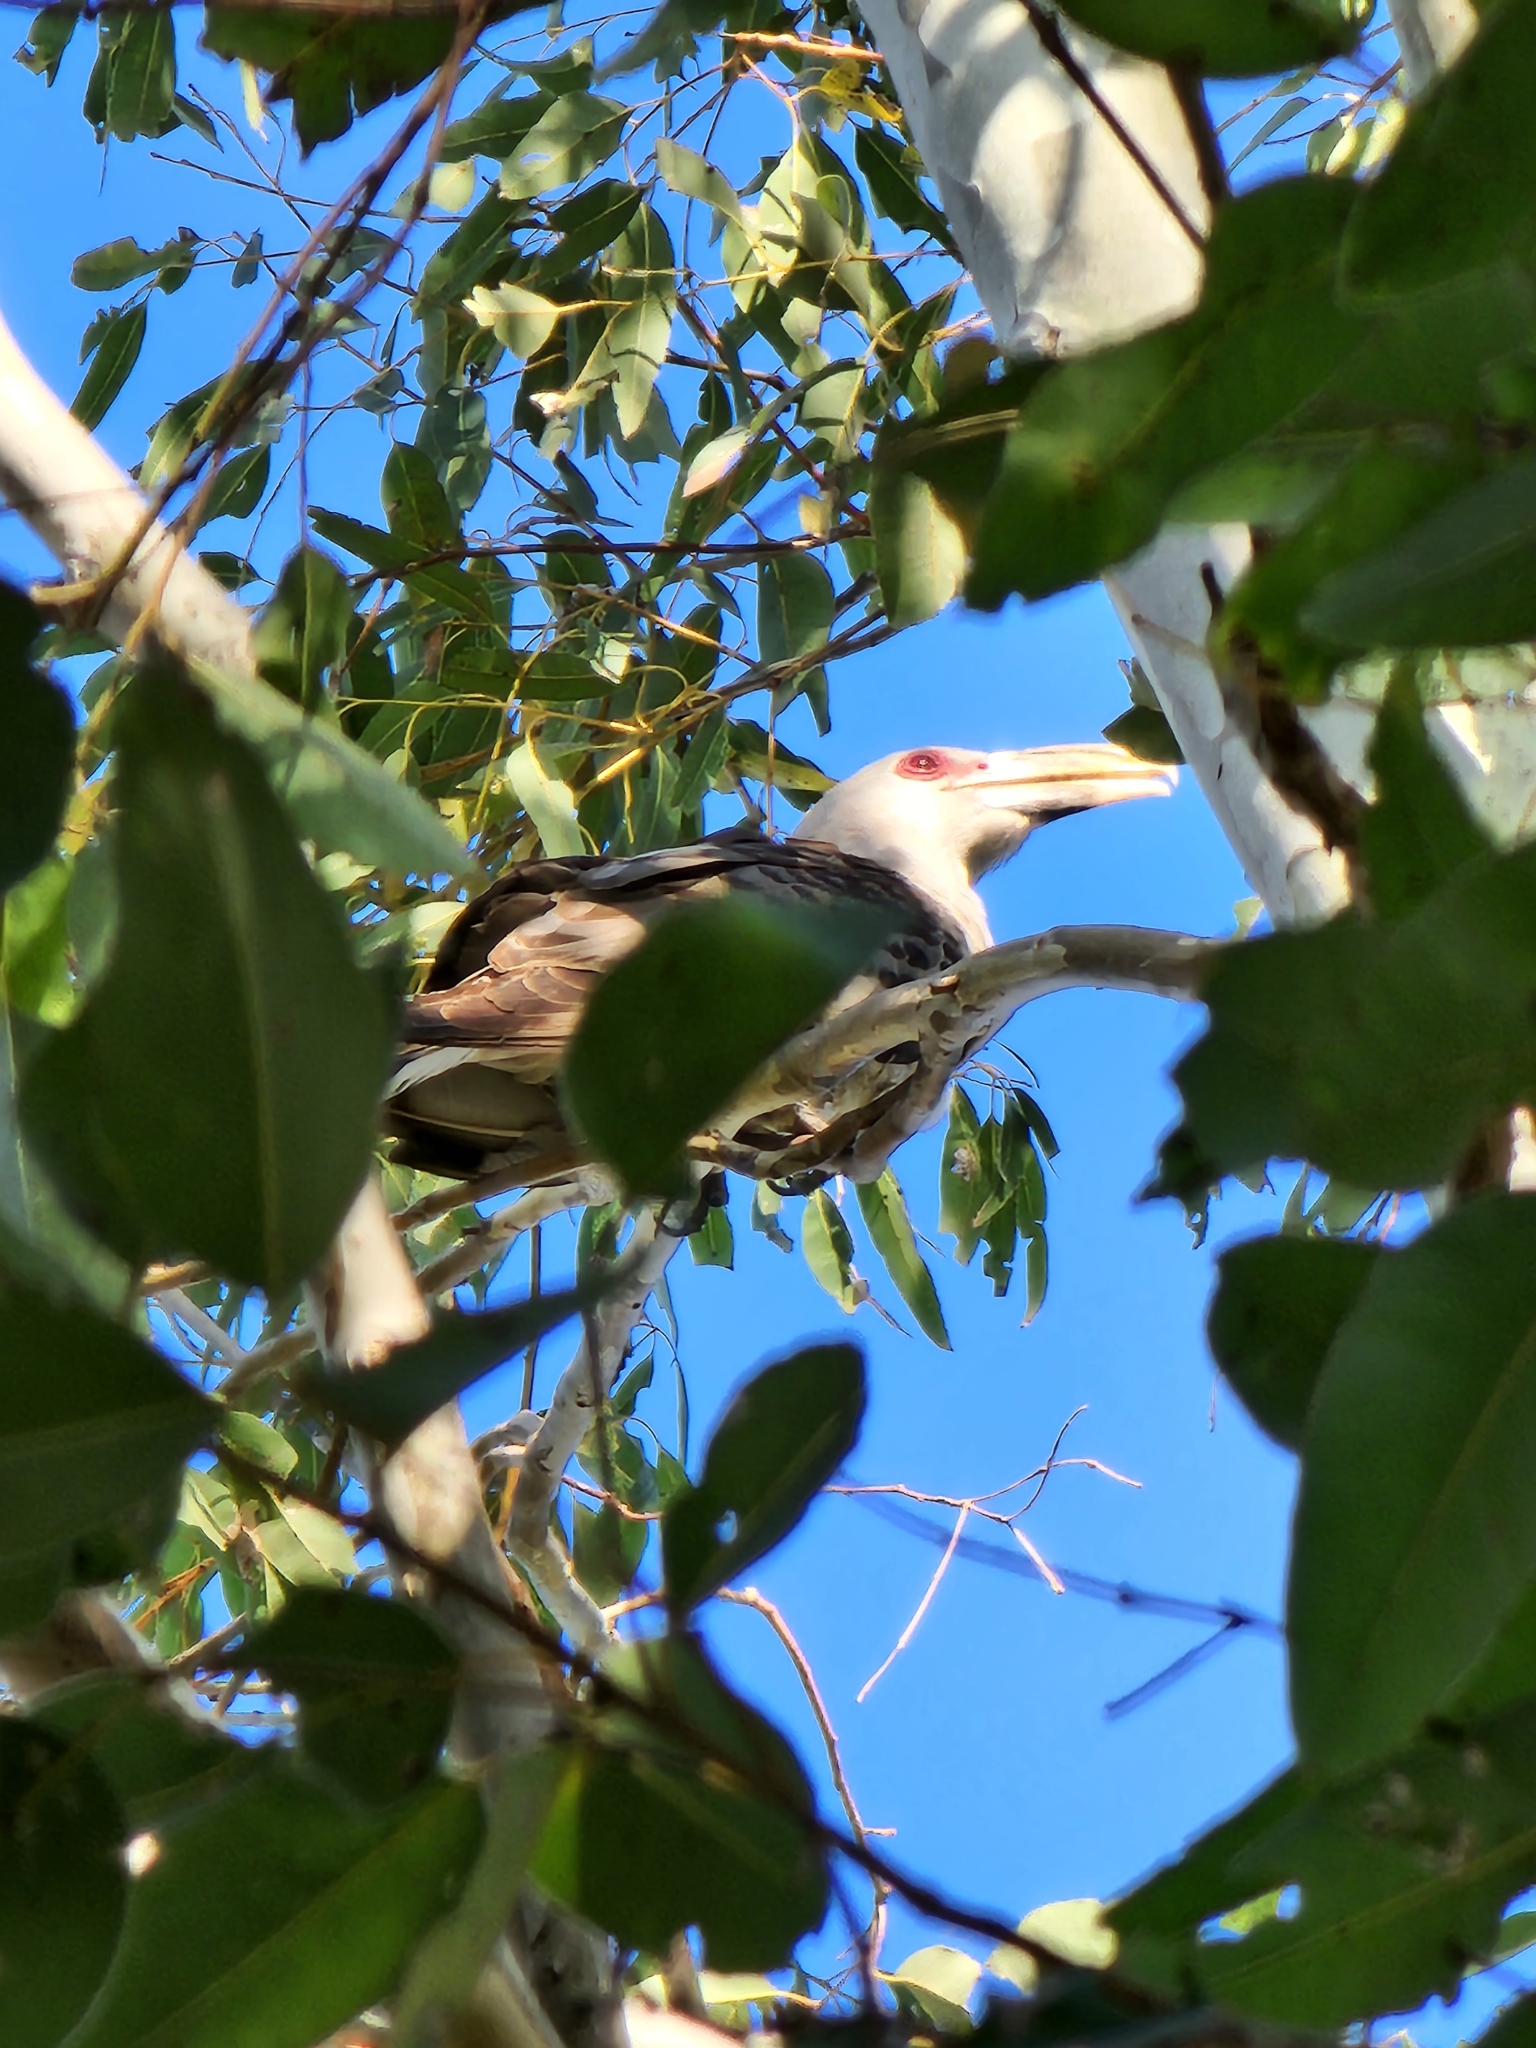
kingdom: Animalia
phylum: Chordata
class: Aves
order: Cuculiformes
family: Cuculidae
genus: Scythrops
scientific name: Scythrops novaehollandiae
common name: Channel-billed cuckoo
